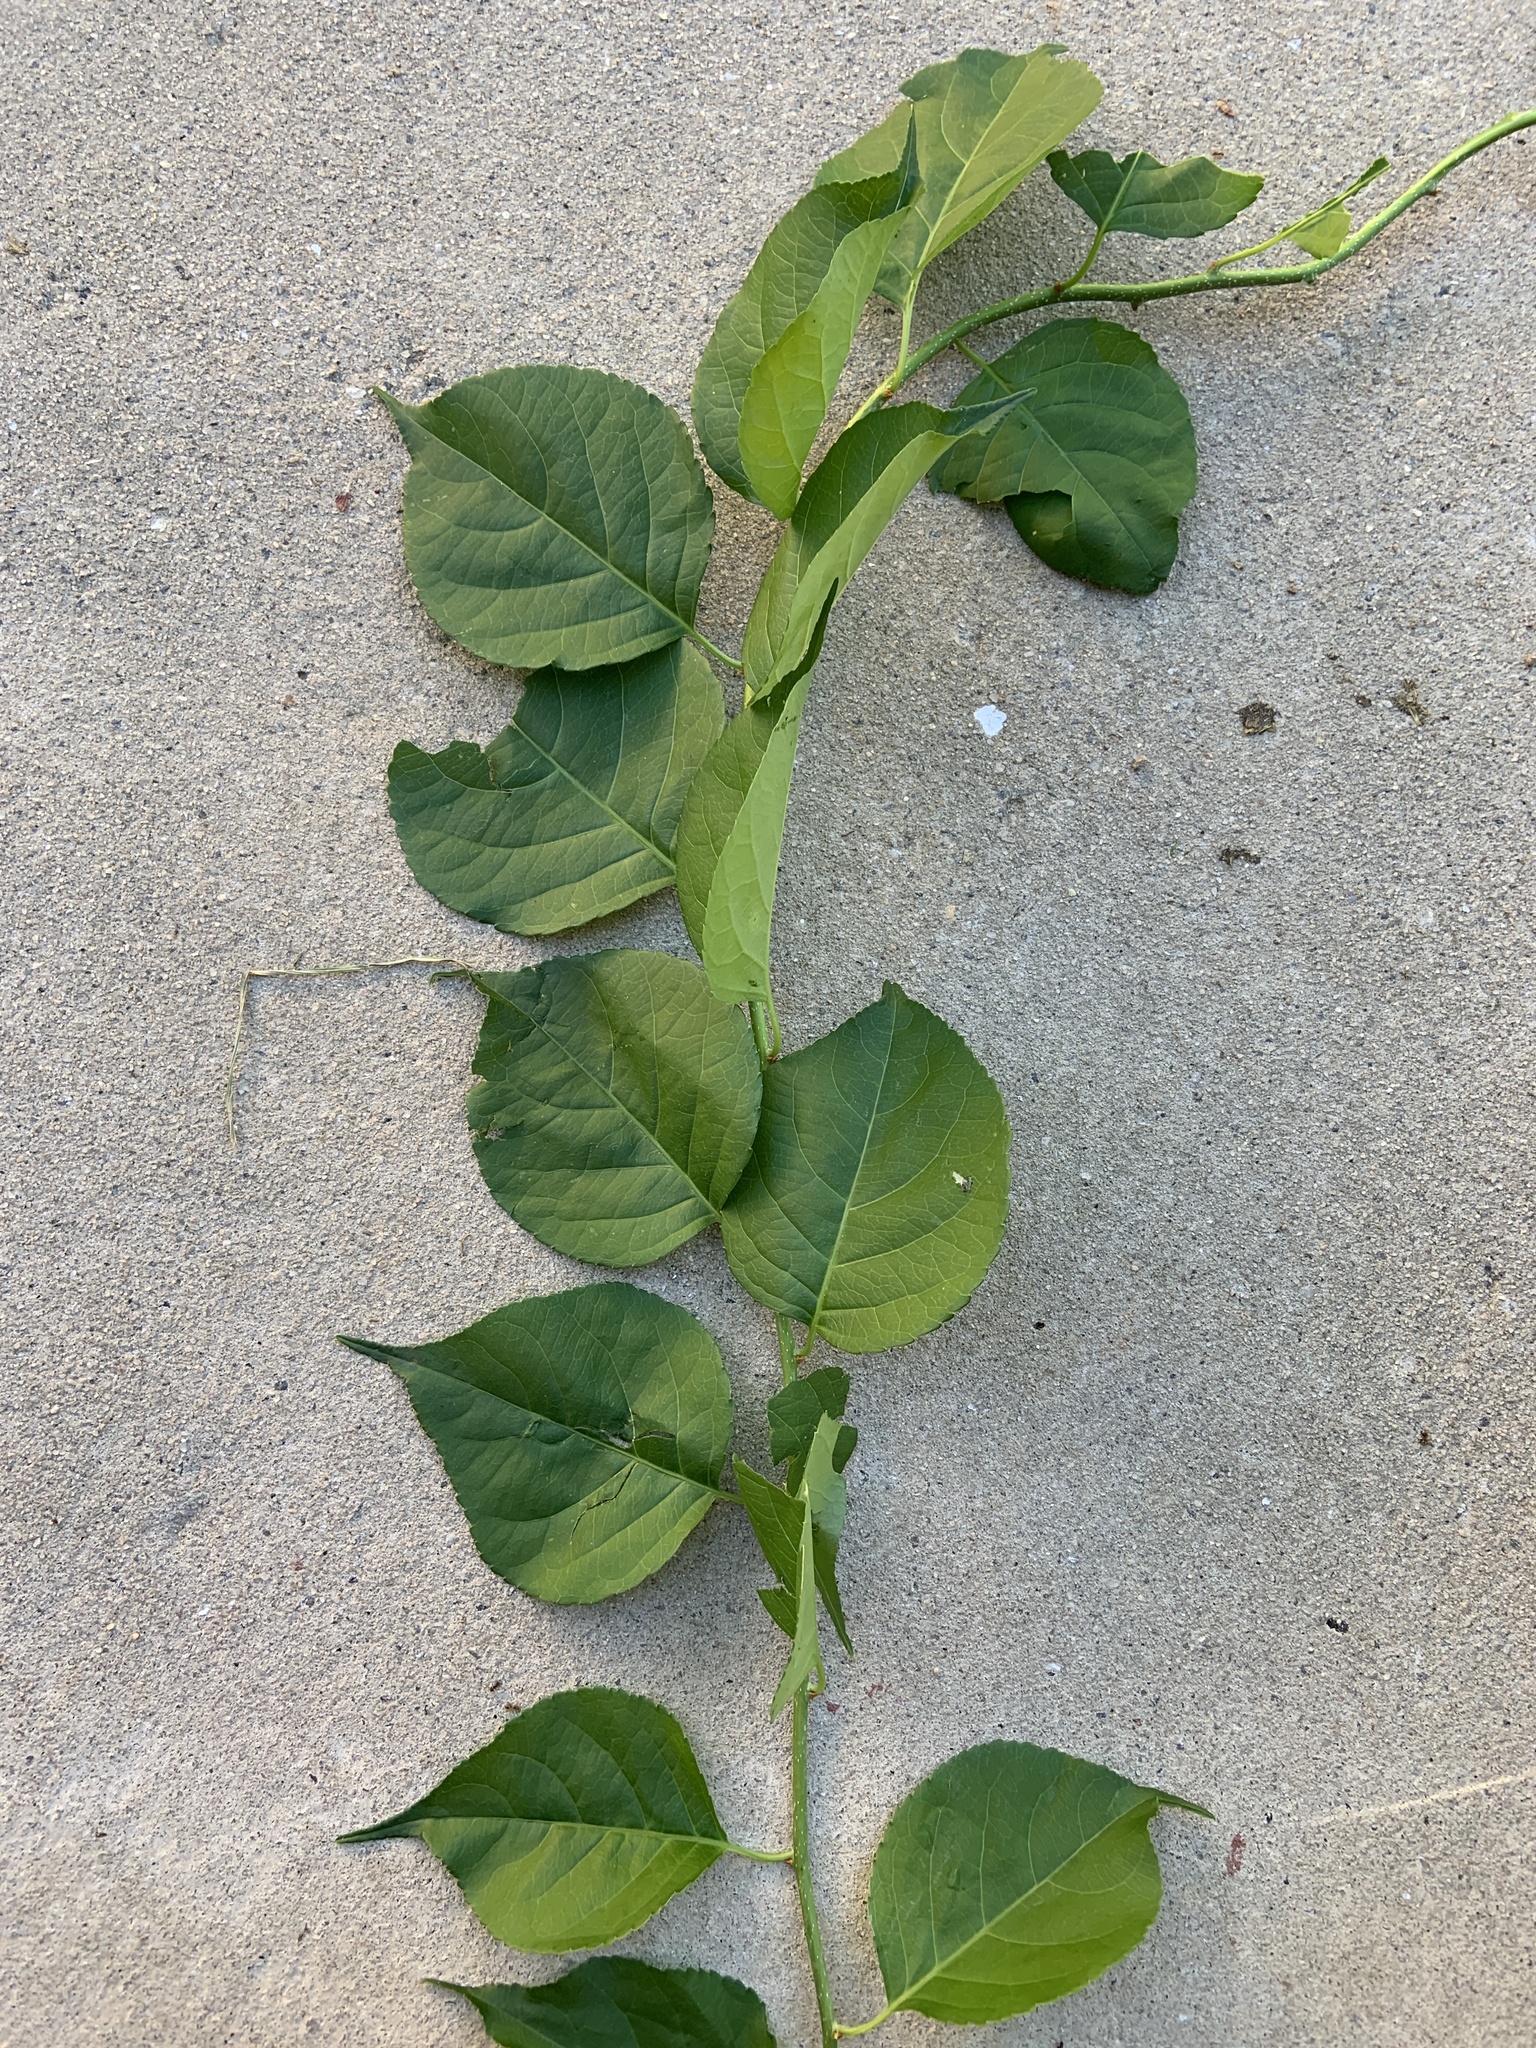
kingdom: Plantae
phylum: Tracheophyta
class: Magnoliopsida
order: Celastrales
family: Celastraceae
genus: Celastrus
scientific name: Celastrus orbiculatus
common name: Oriental bittersweet
